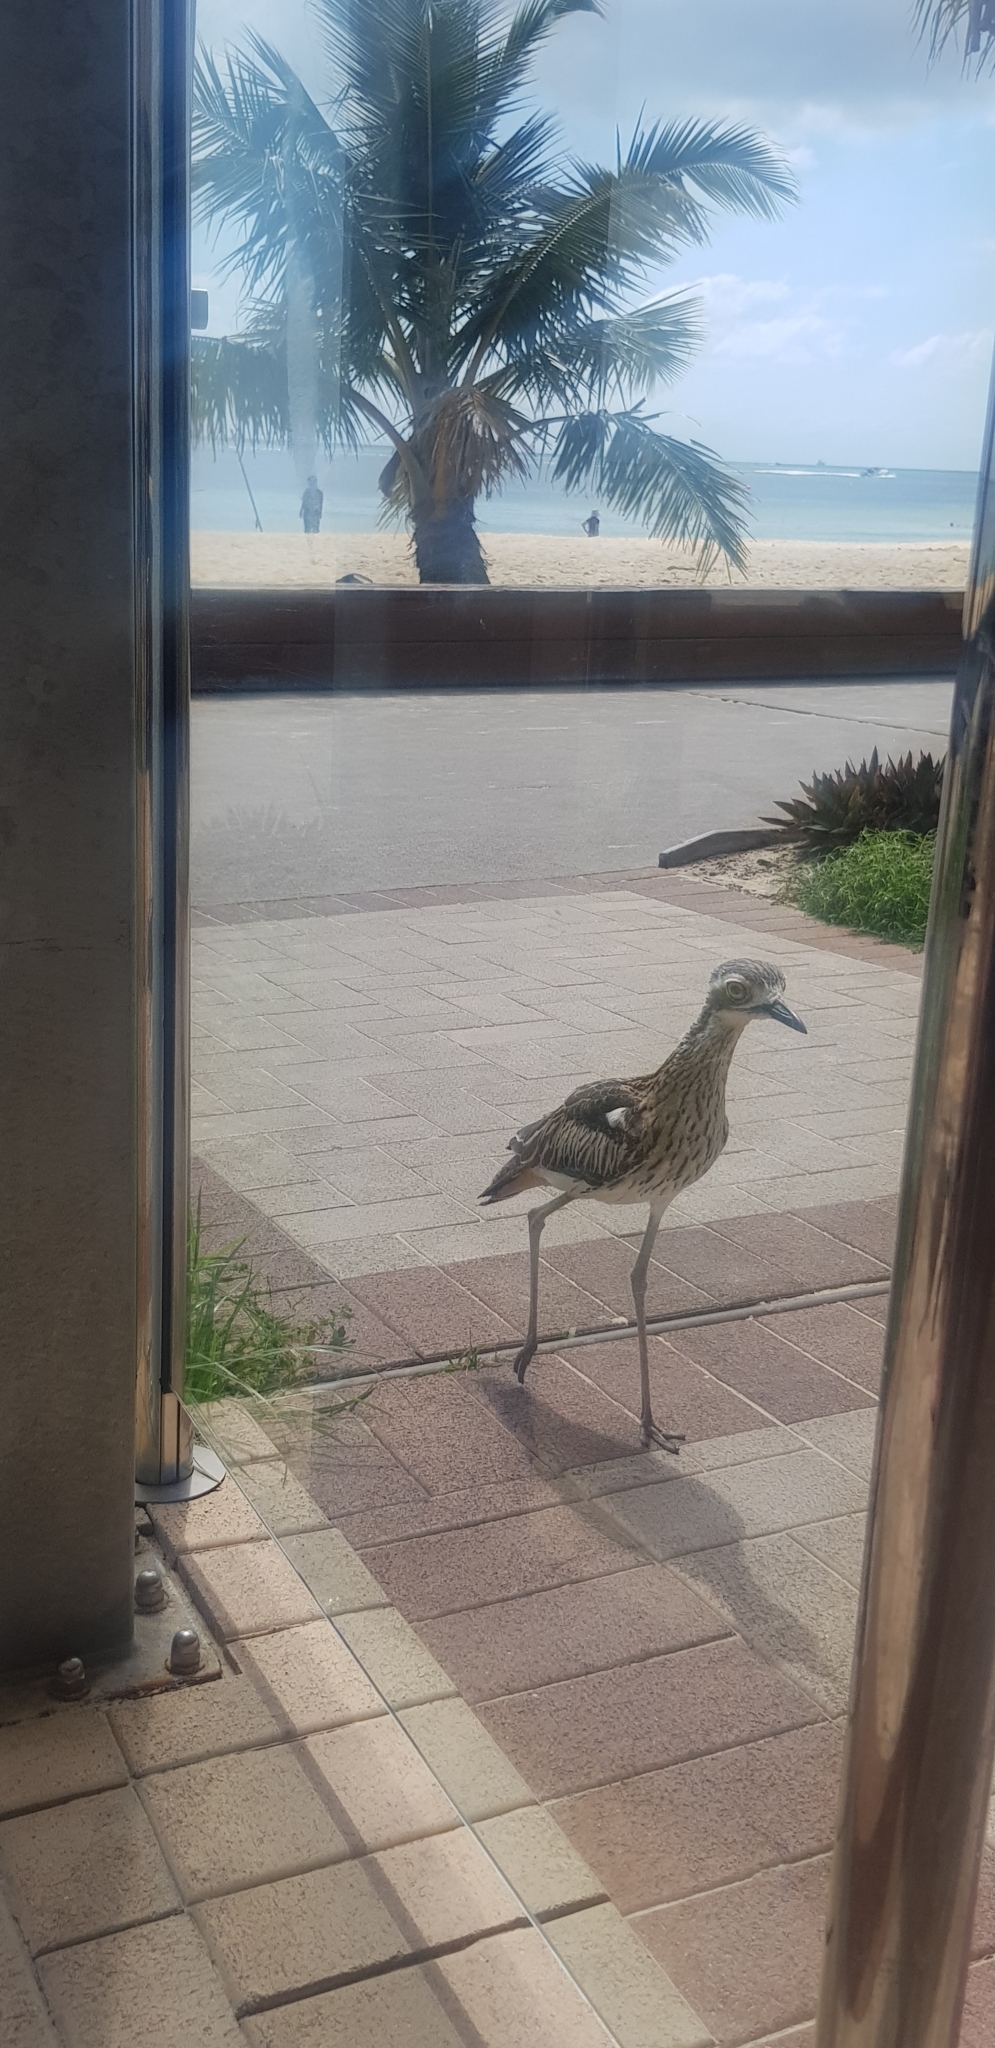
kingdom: Animalia
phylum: Chordata
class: Aves
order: Charadriiformes
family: Burhinidae
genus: Burhinus
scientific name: Burhinus grallarius
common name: Bush stone-curlew
